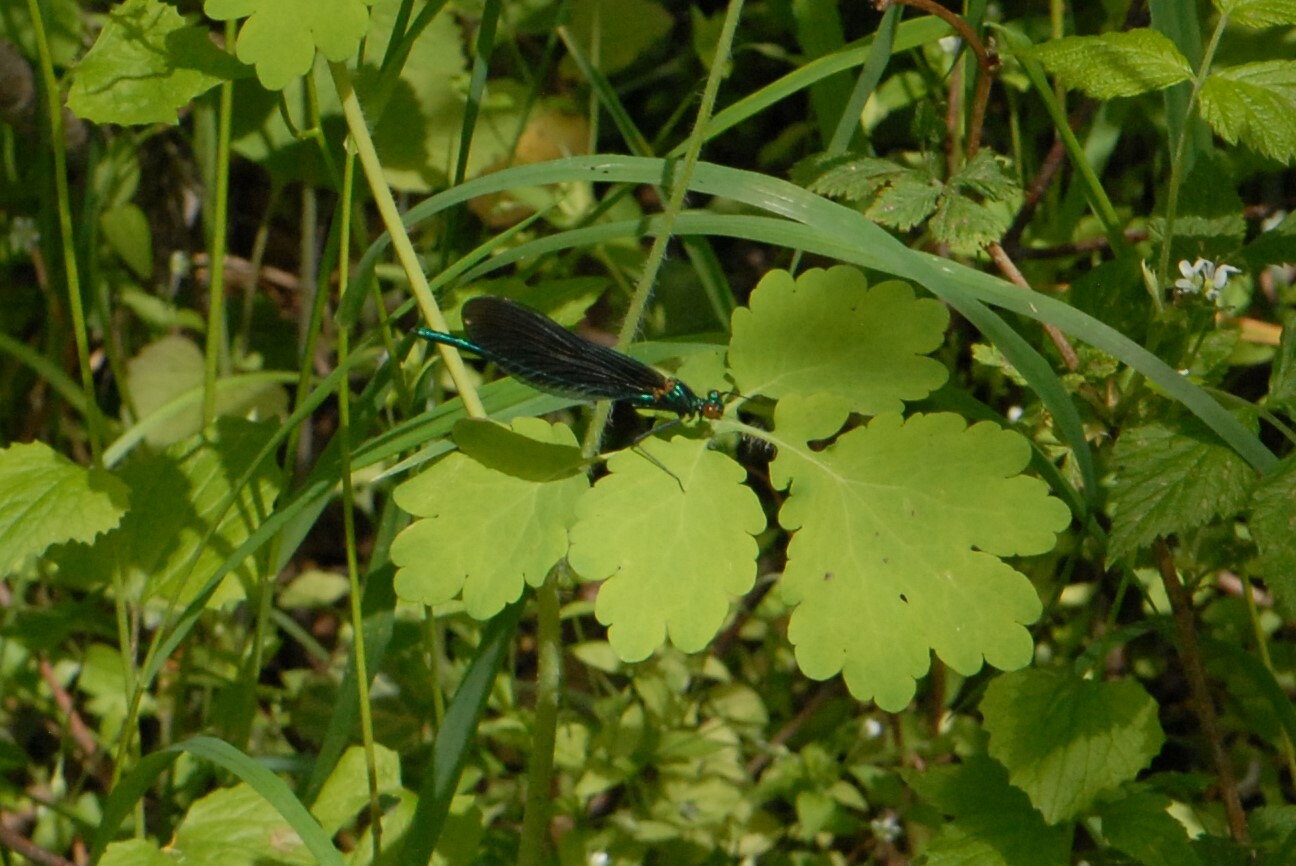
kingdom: Animalia
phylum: Arthropoda
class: Insecta
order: Odonata
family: Calopterygidae
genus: Calopteryx
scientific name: Calopteryx virgo
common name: Beautiful demoiselle
